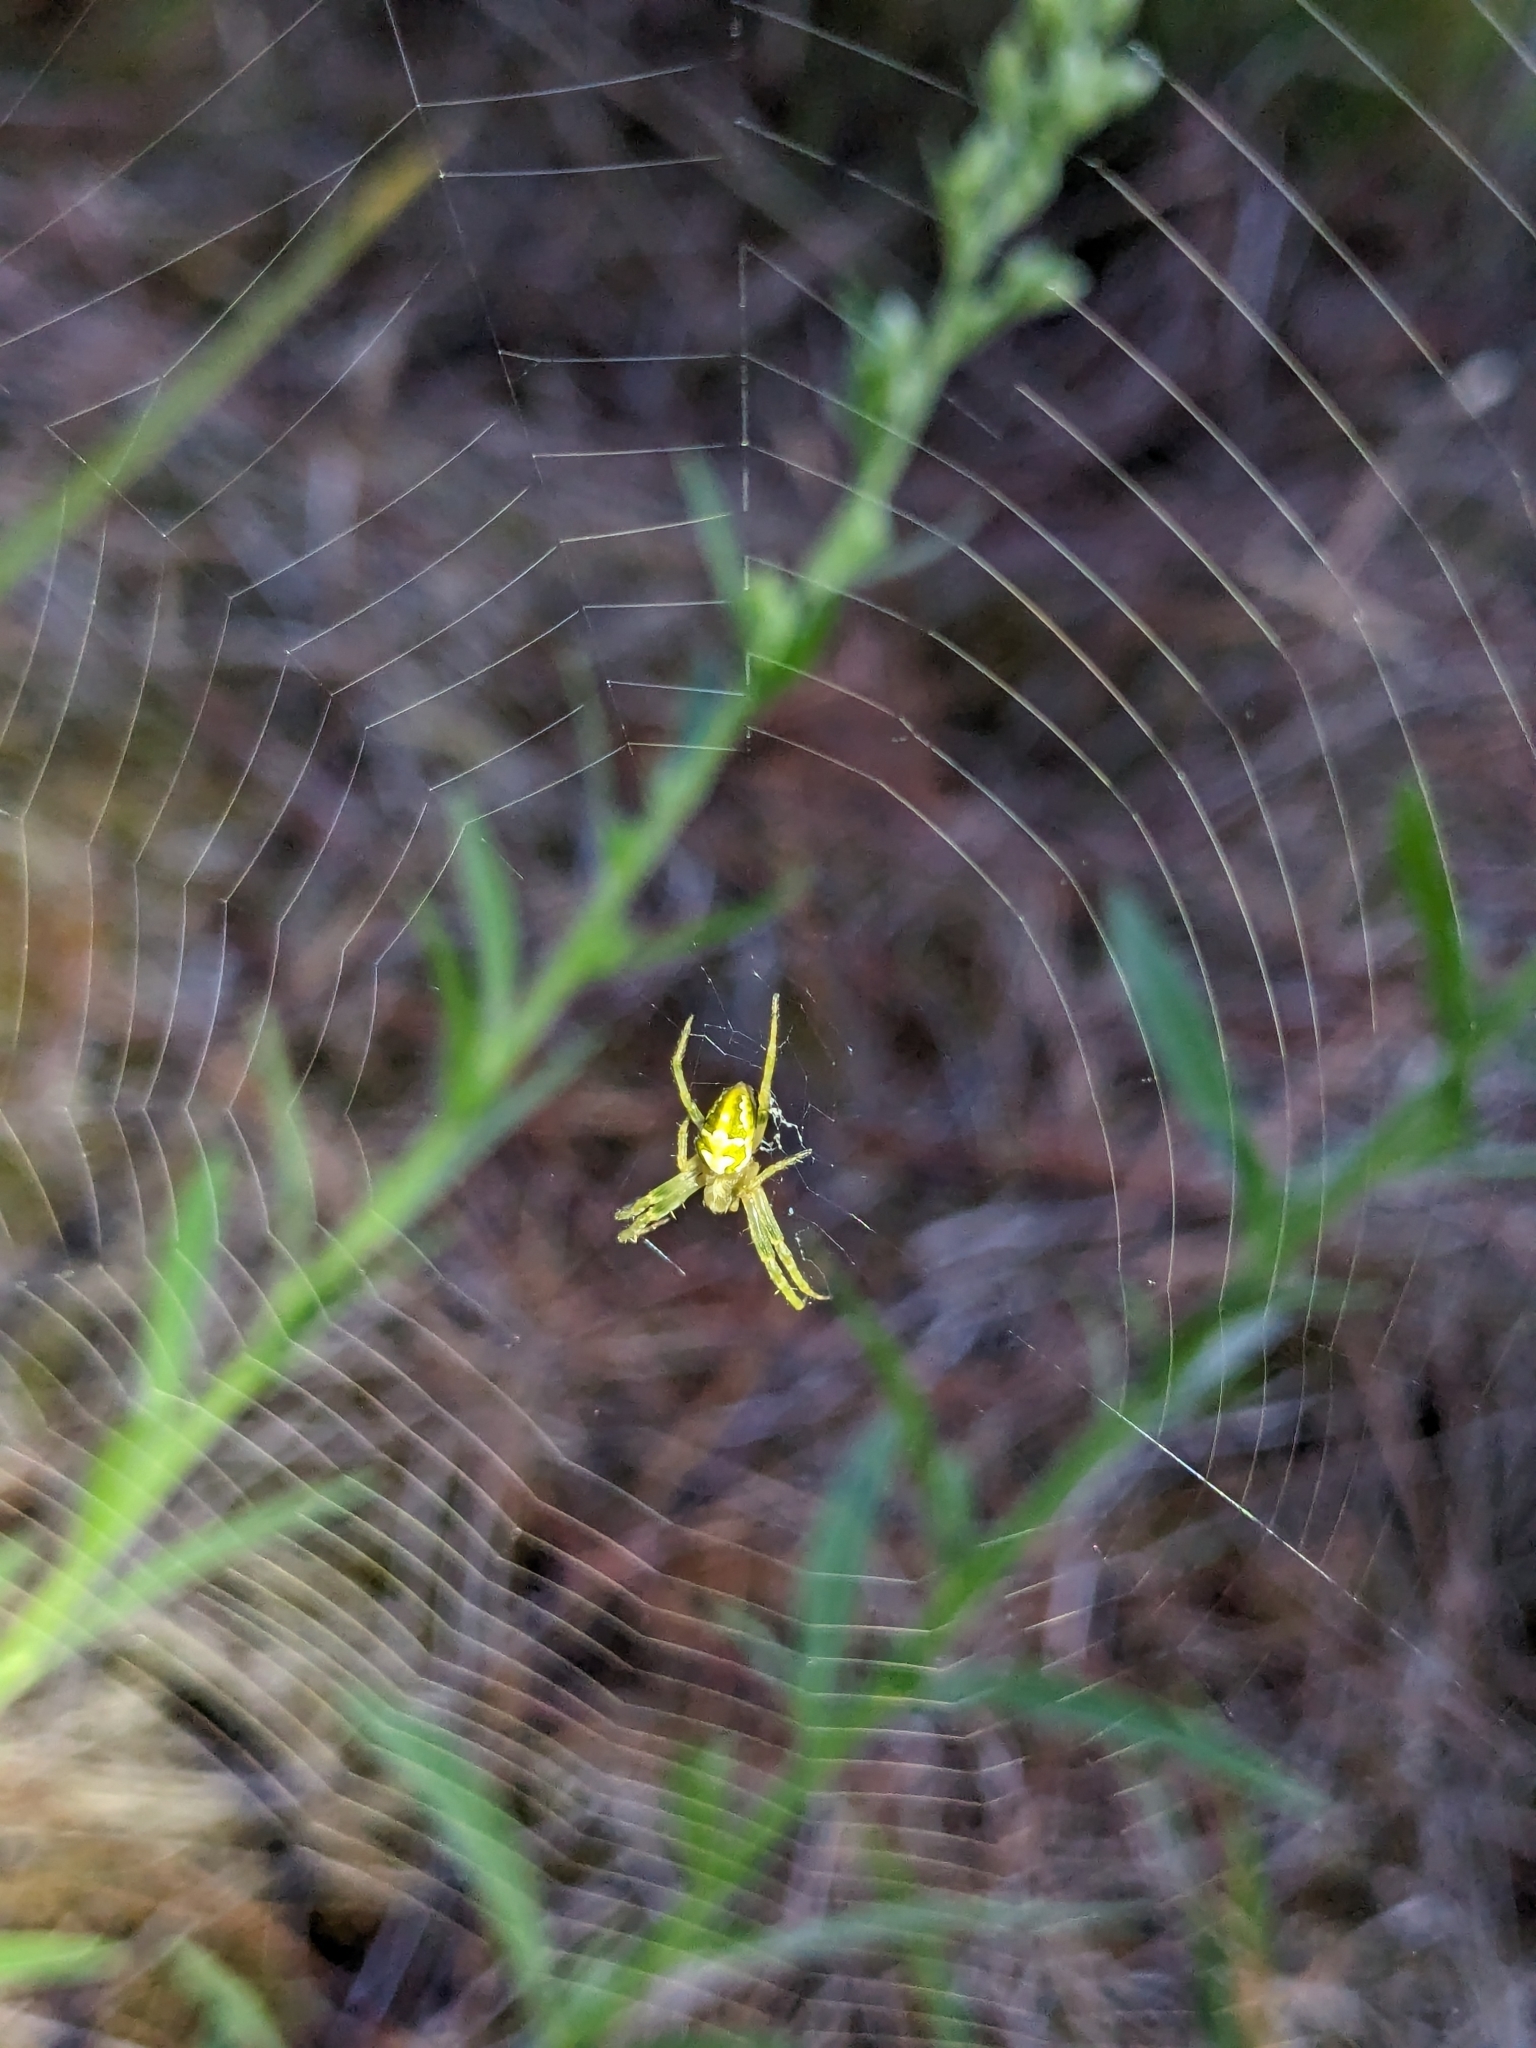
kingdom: Animalia
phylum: Arthropoda
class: Arachnida
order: Araneae
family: Araneidae
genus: Colaranea
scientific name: Colaranea verutum
